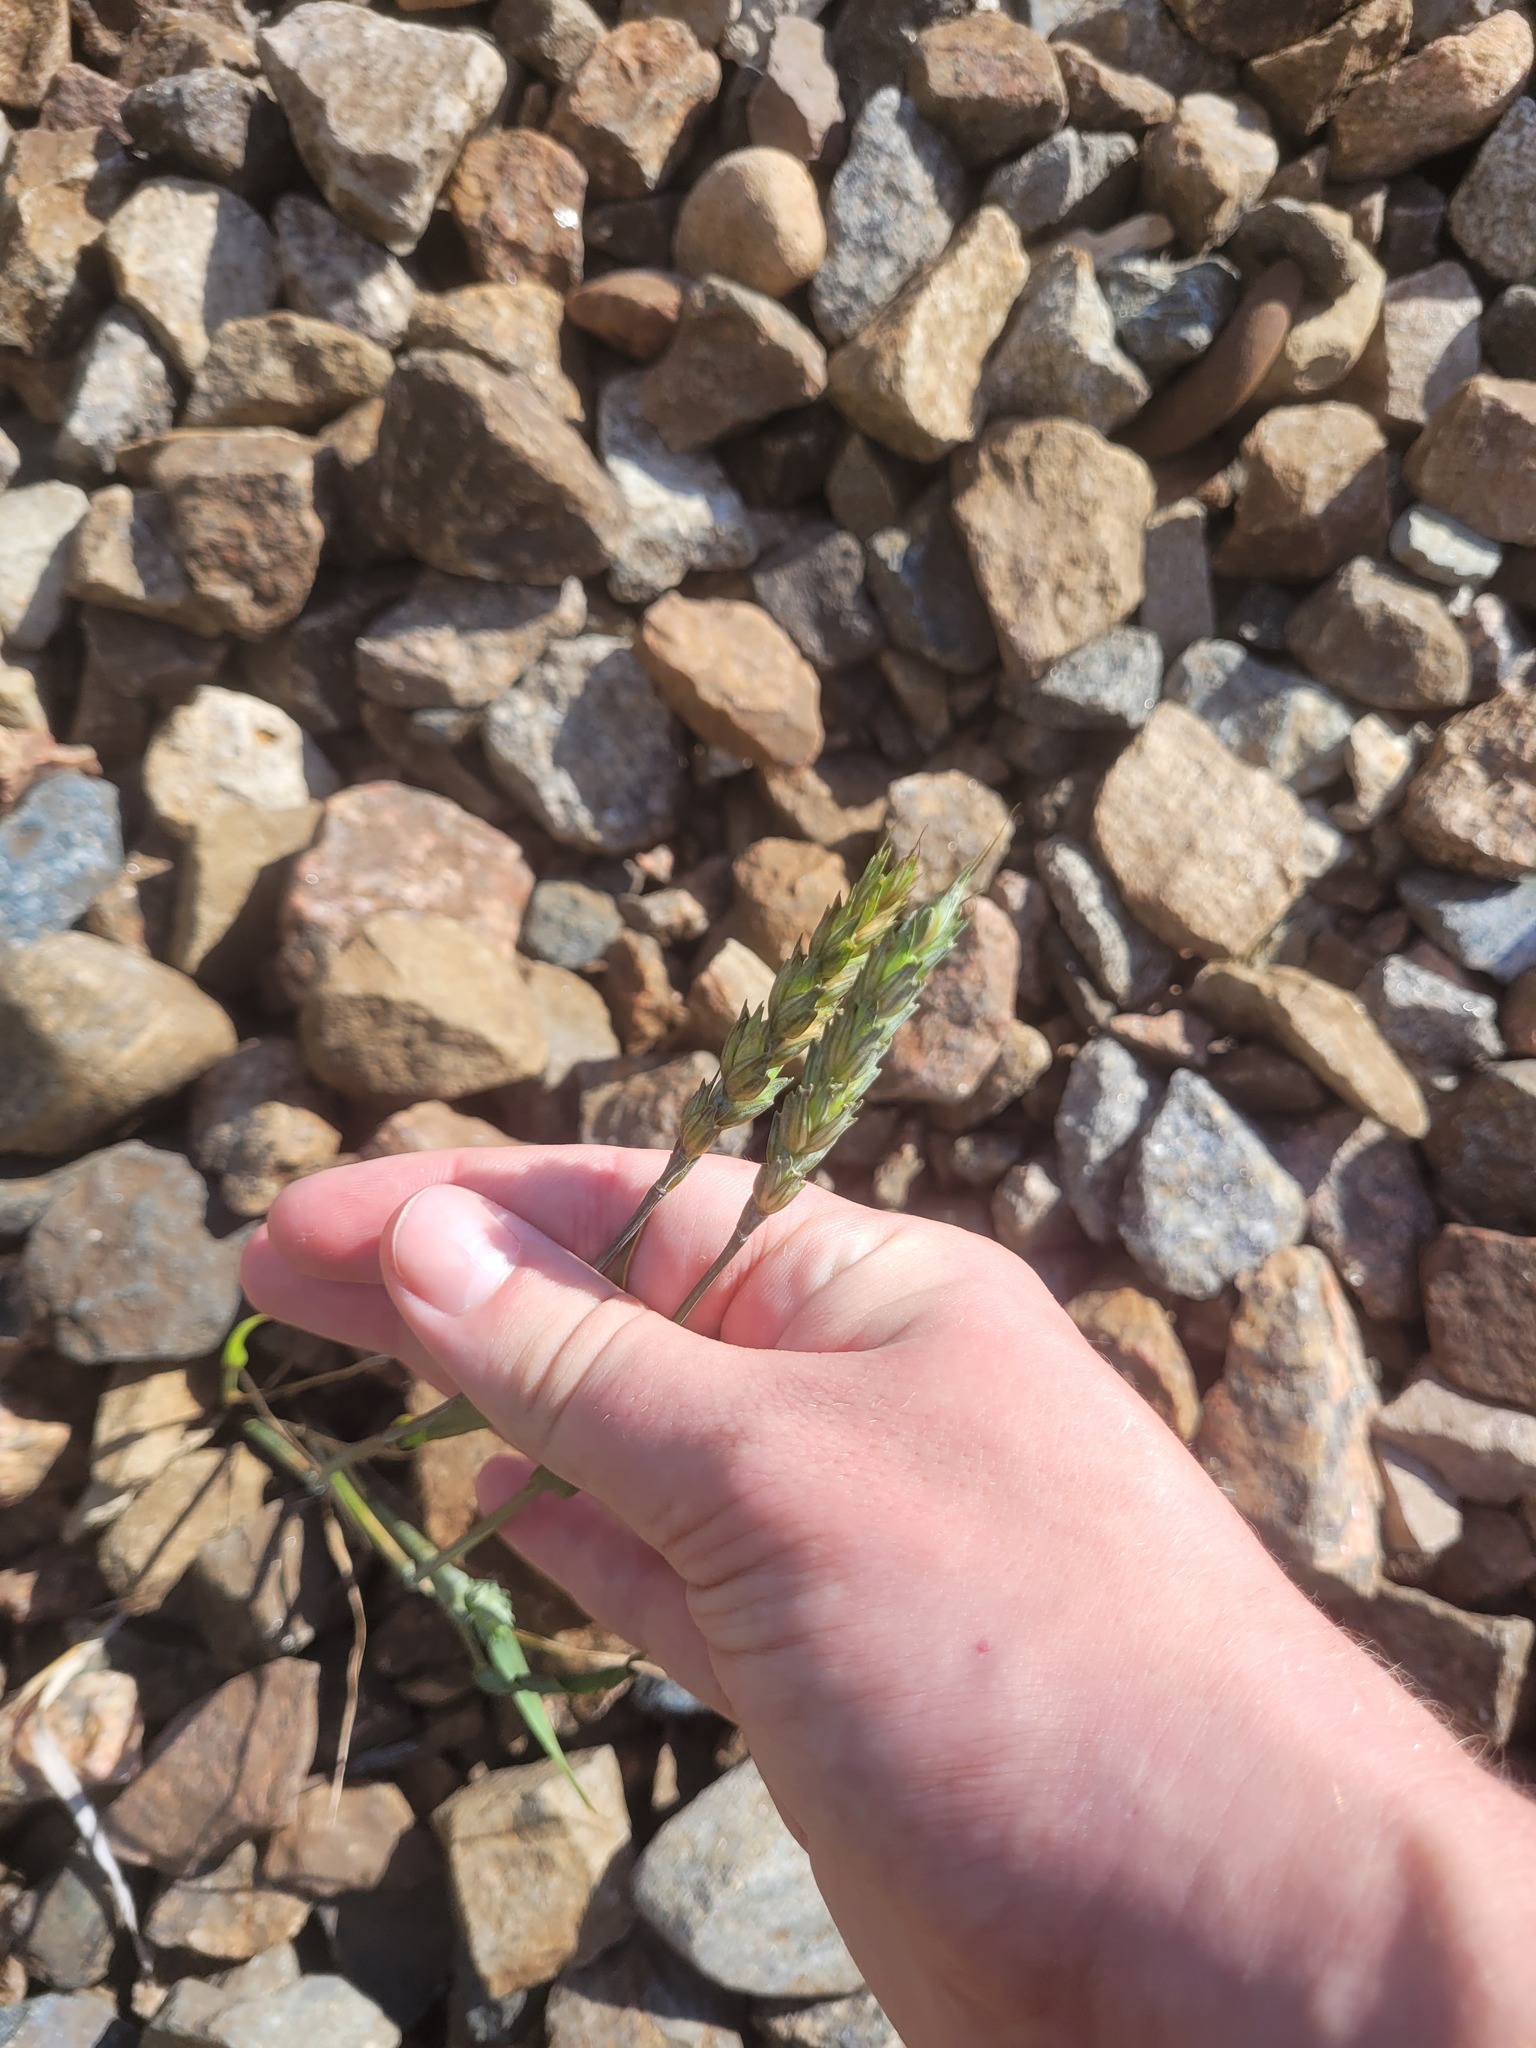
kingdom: Plantae
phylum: Tracheophyta
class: Liliopsida
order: Poales
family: Poaceae
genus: Triticum
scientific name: Triticum aestivum
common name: Common wheat
